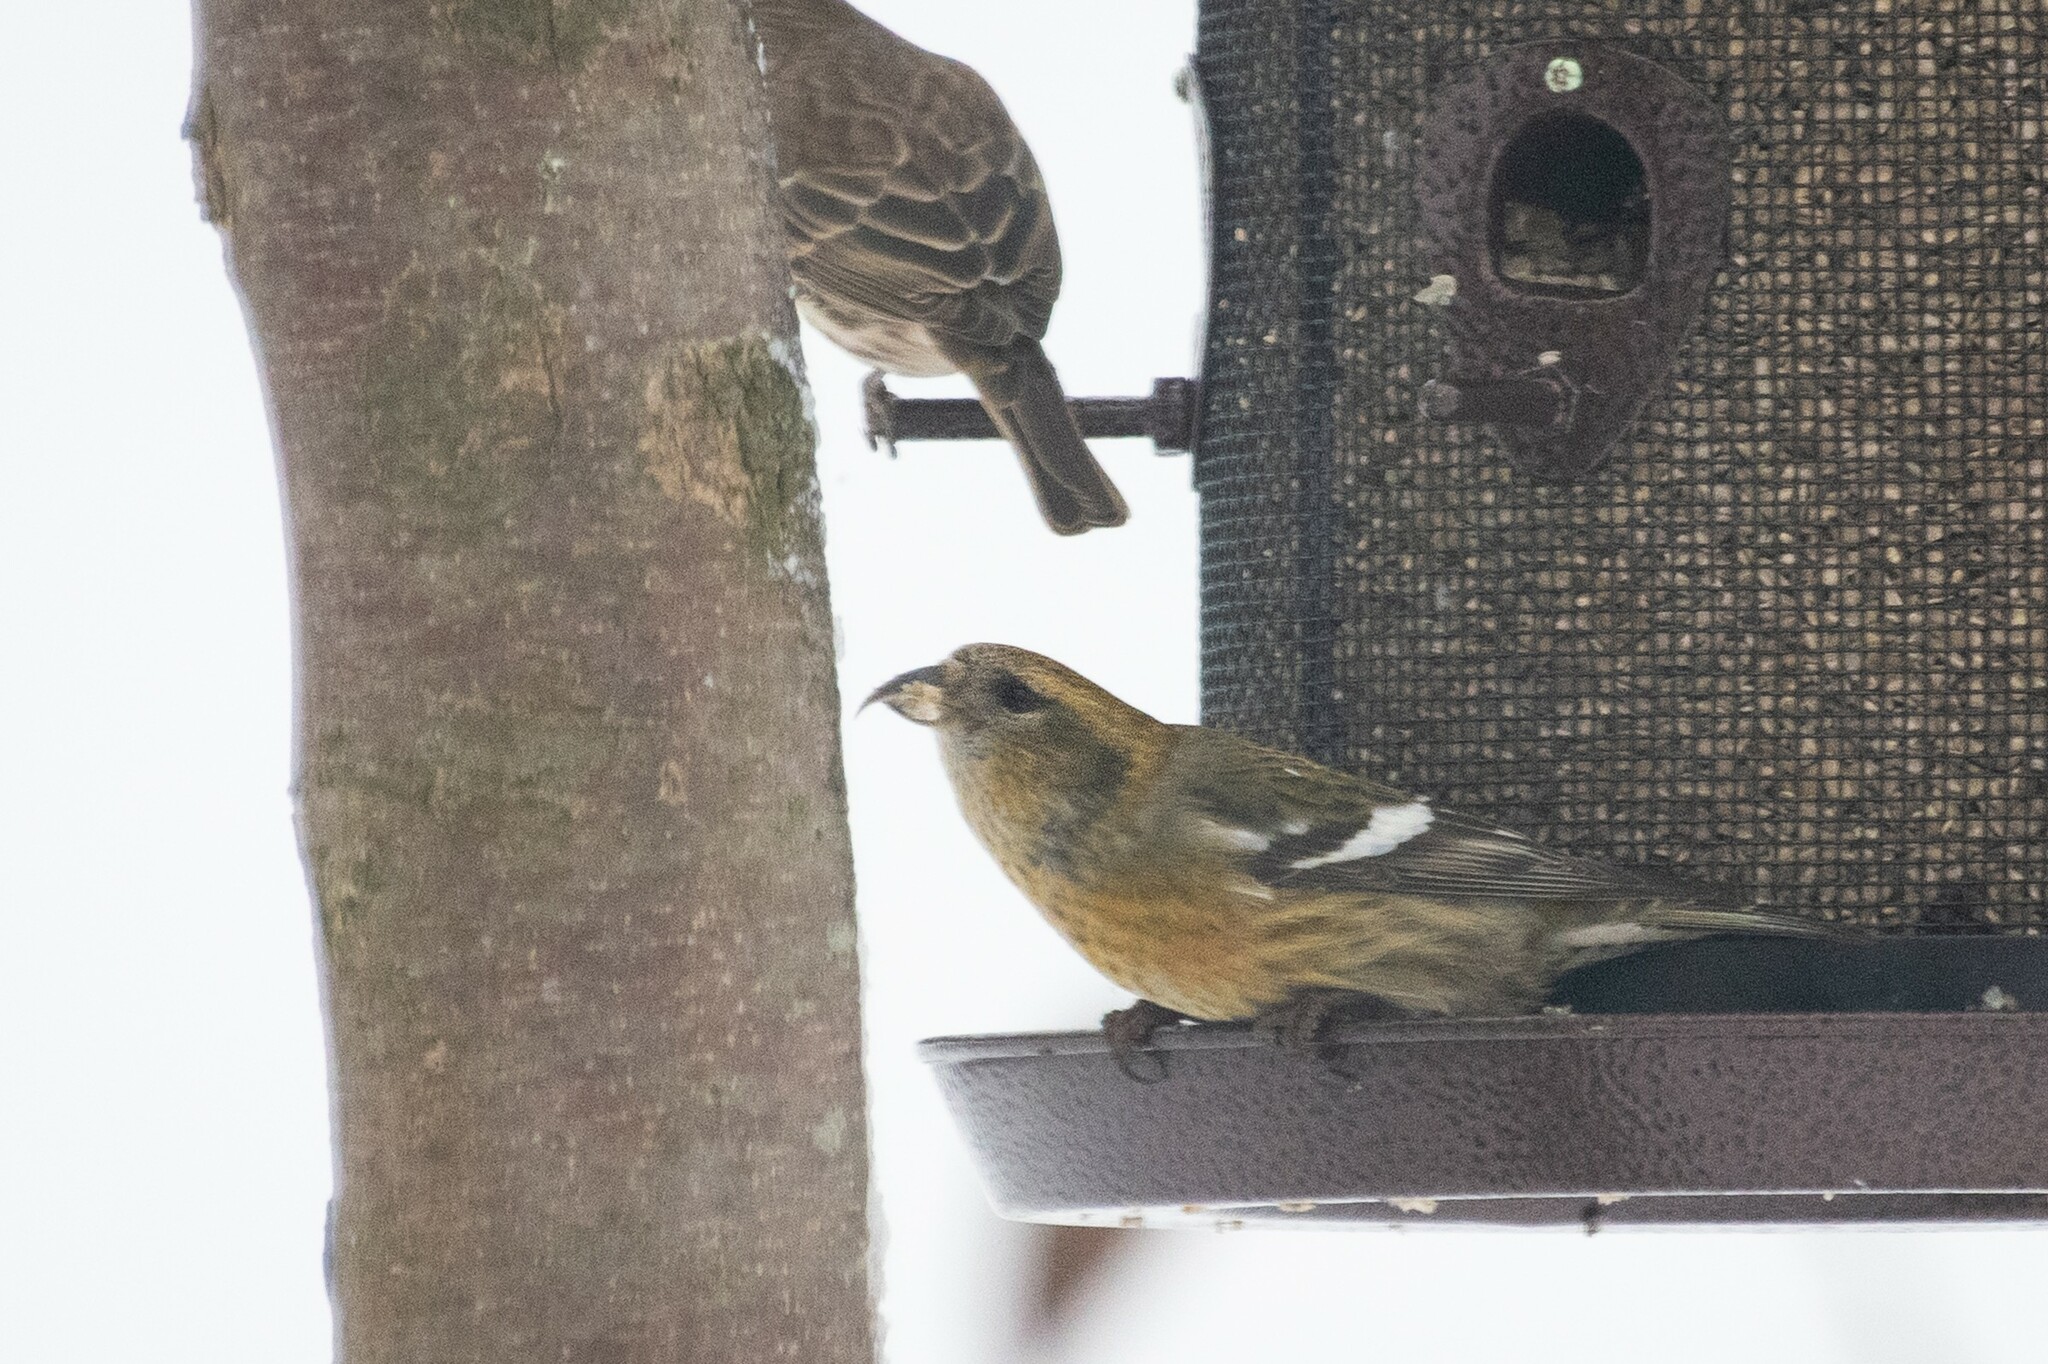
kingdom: Animalia
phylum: Chordata
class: Aves
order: Passeriformes
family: Fringillidae
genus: Loxia
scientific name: Loxia leucoptera
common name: Two-barred crossbill
